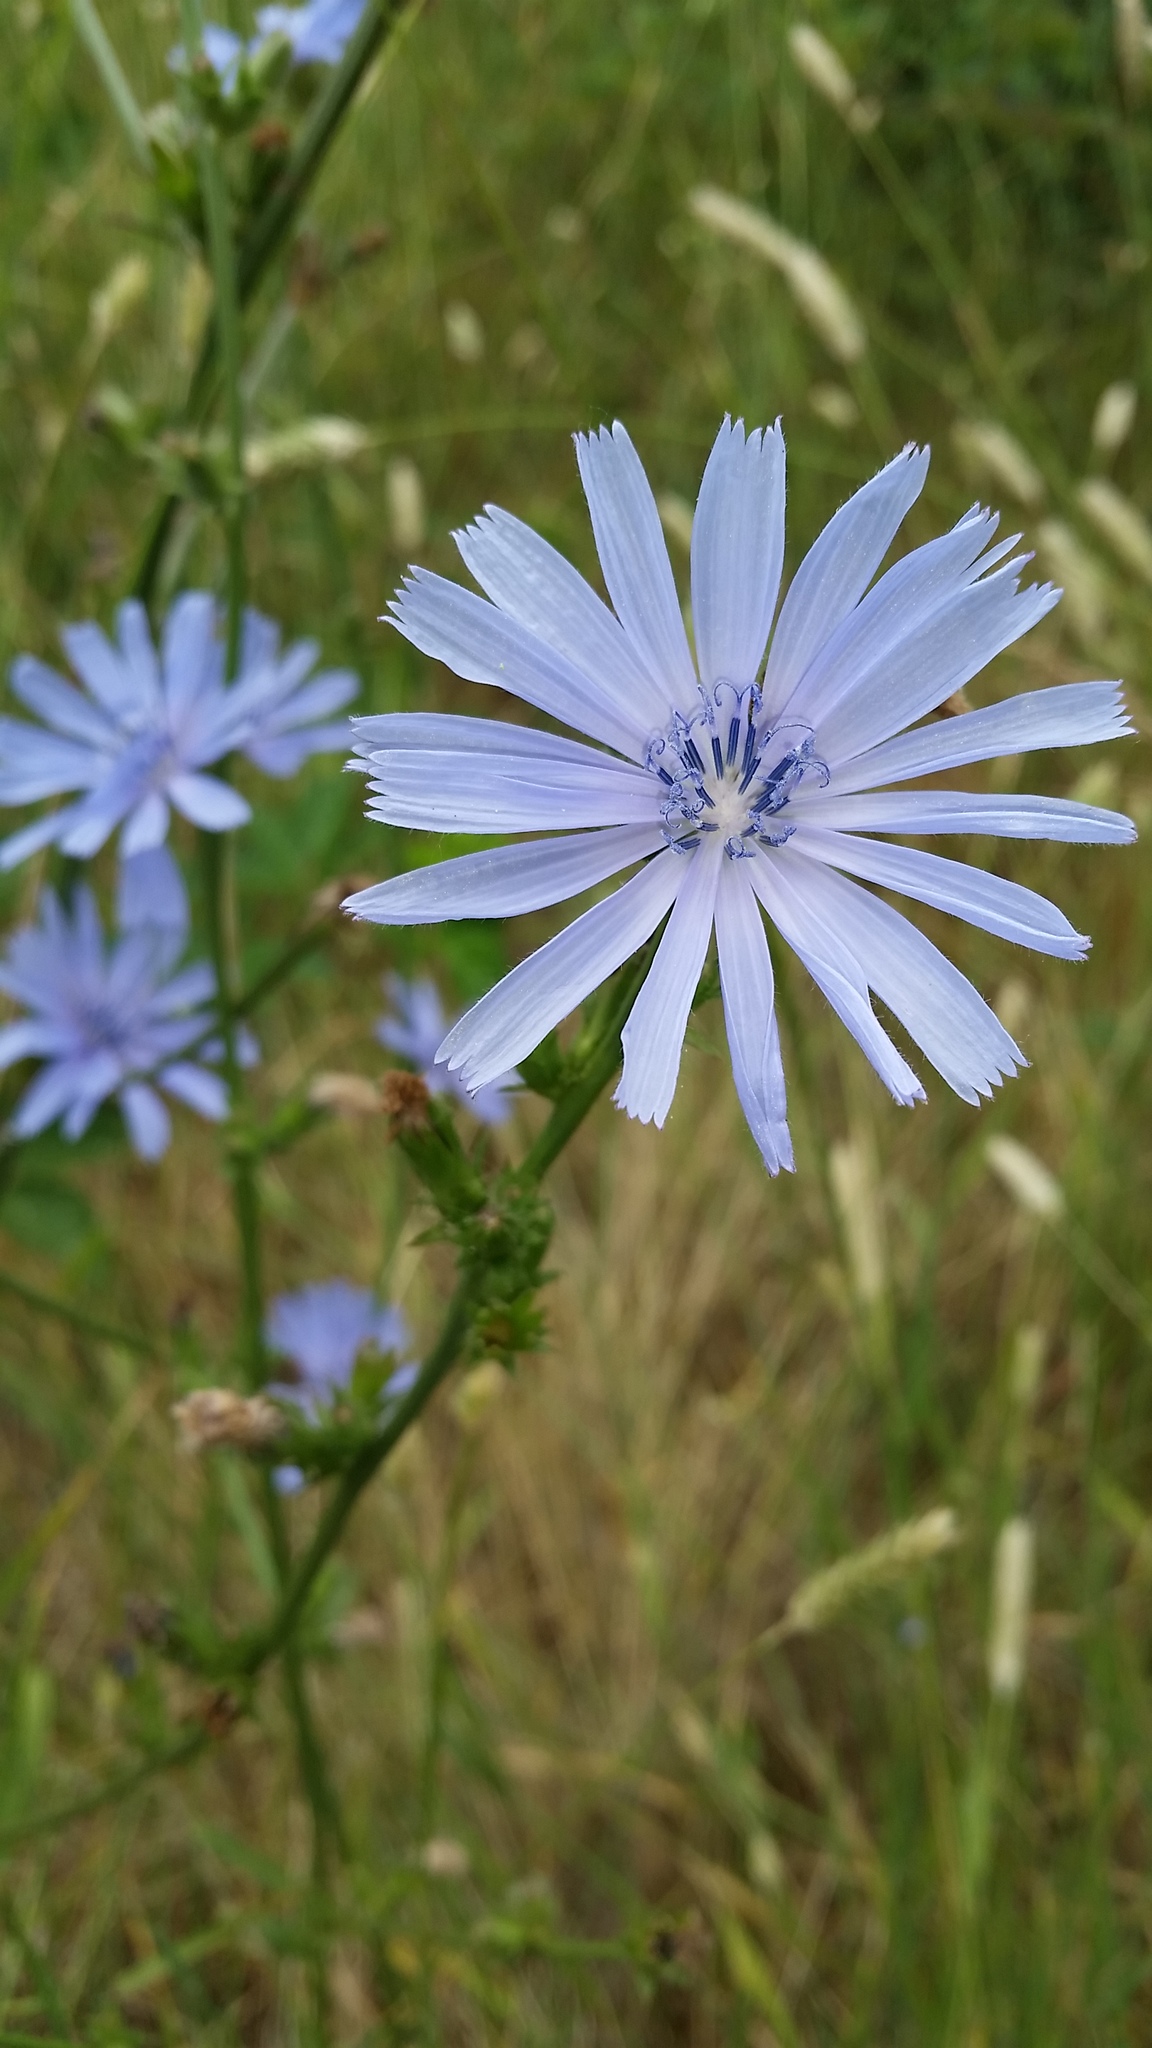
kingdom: Plantae
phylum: Tracheophyta
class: Magnoliopsida
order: Asterales
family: Asteraceae
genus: Cichorium
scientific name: Cichorium intybus
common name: Chicory
